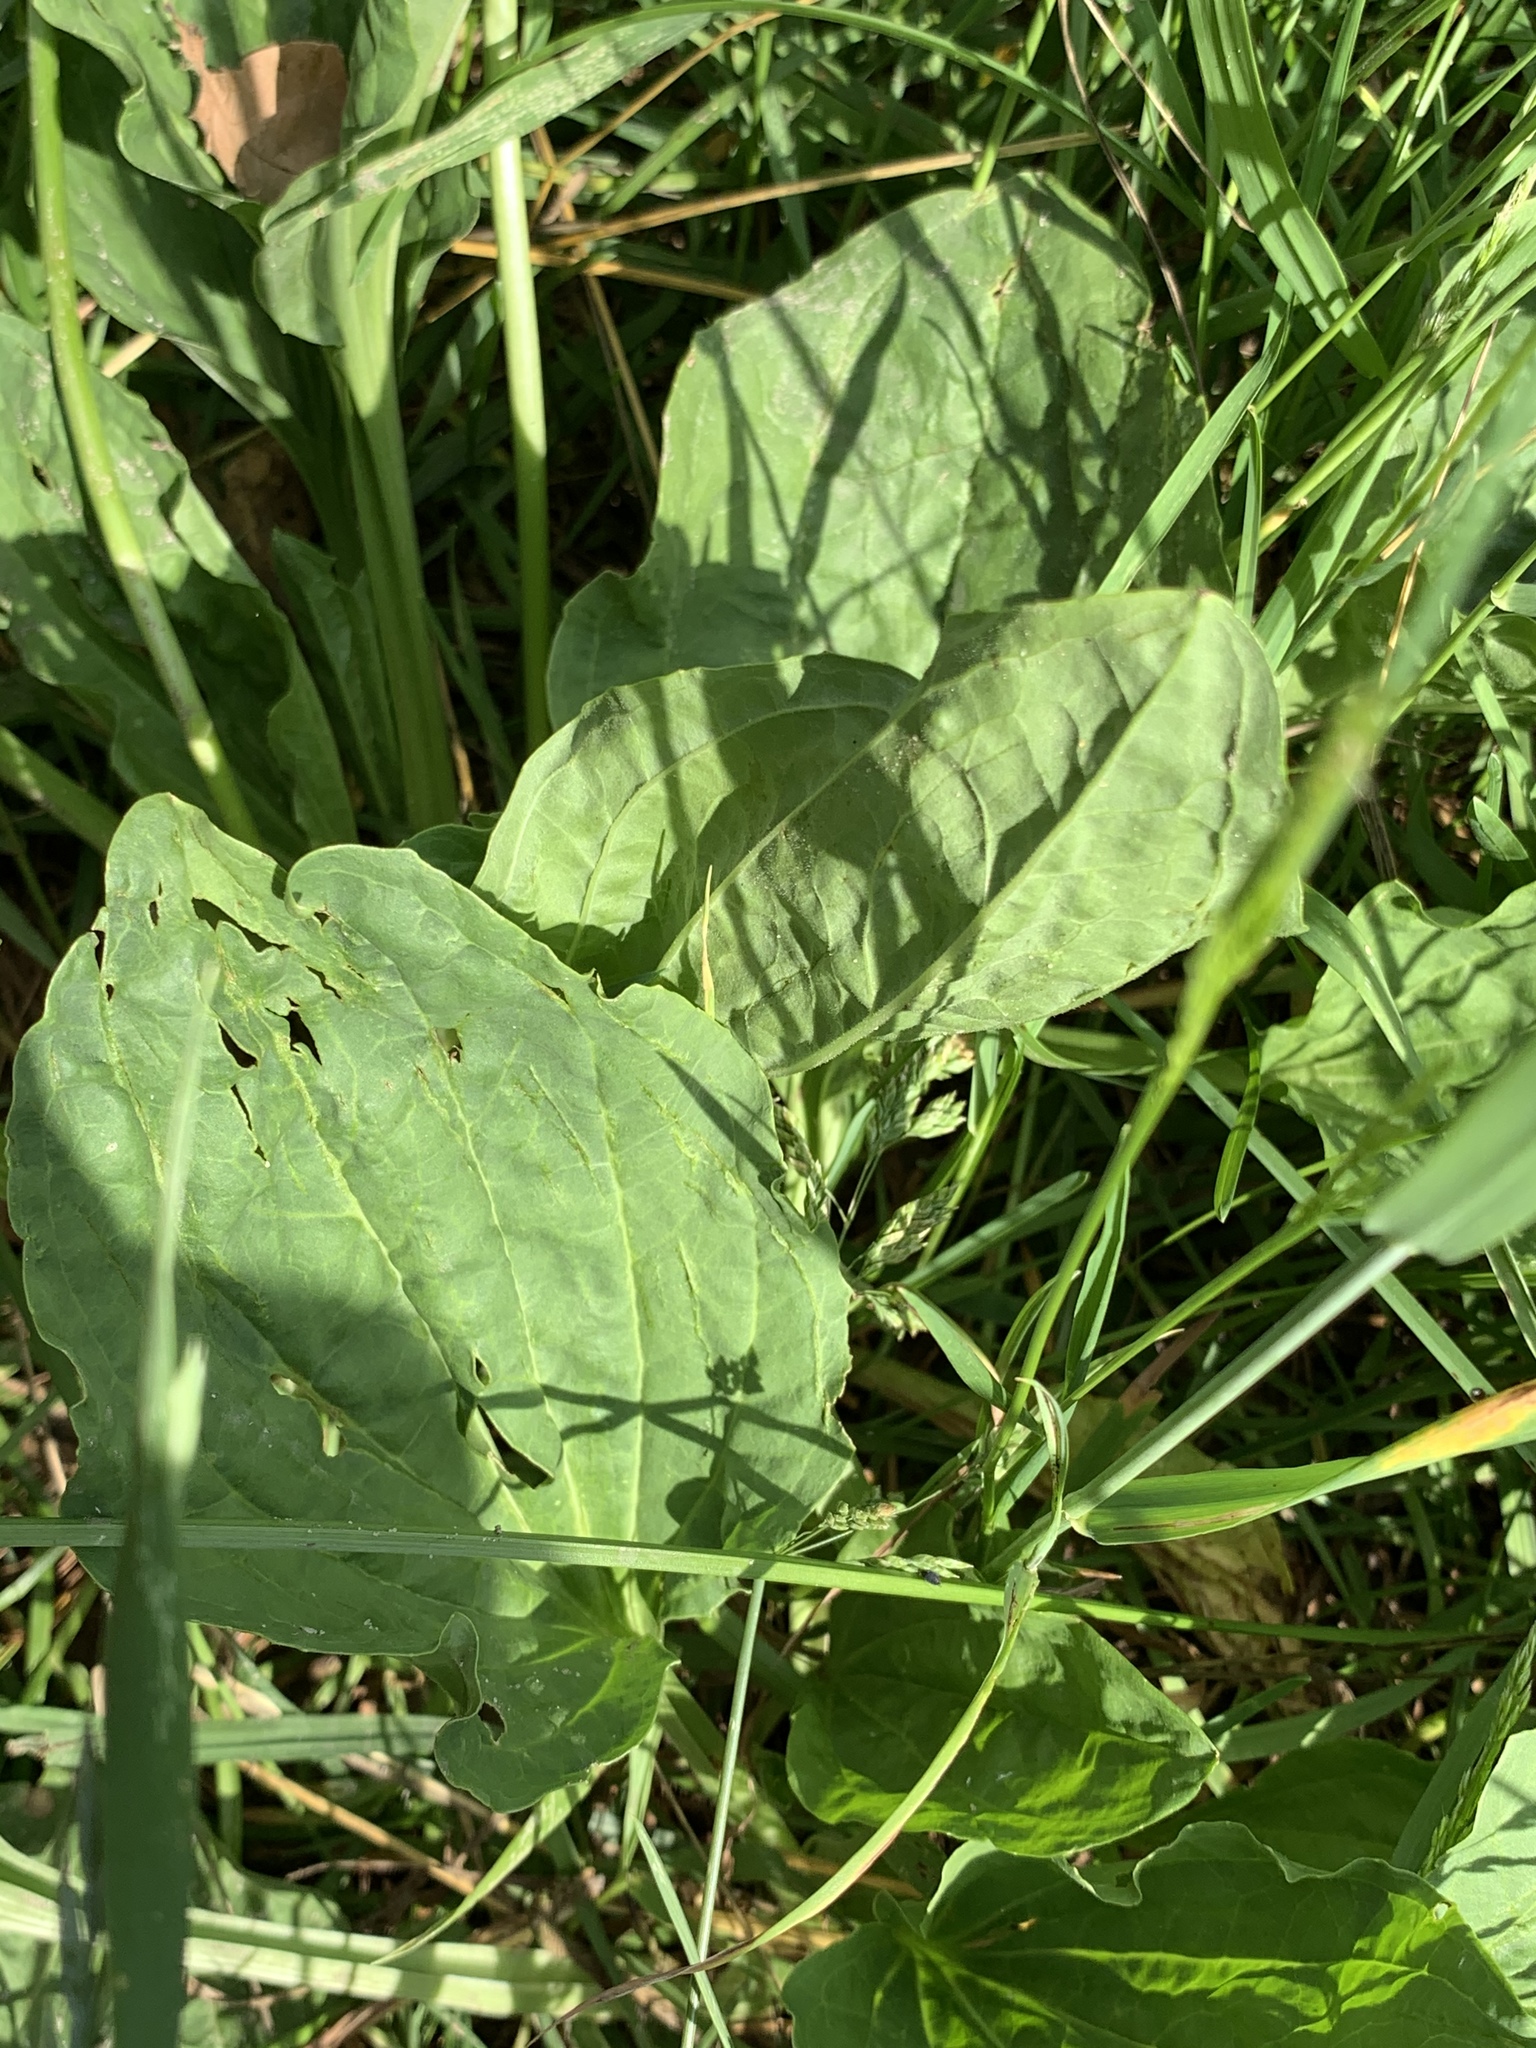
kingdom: Plantae
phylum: Tracheophyta
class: Magnoliopsida
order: Lamiales
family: Plantaginaceae
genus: Plantago
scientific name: Plantago major
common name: Common plantain
